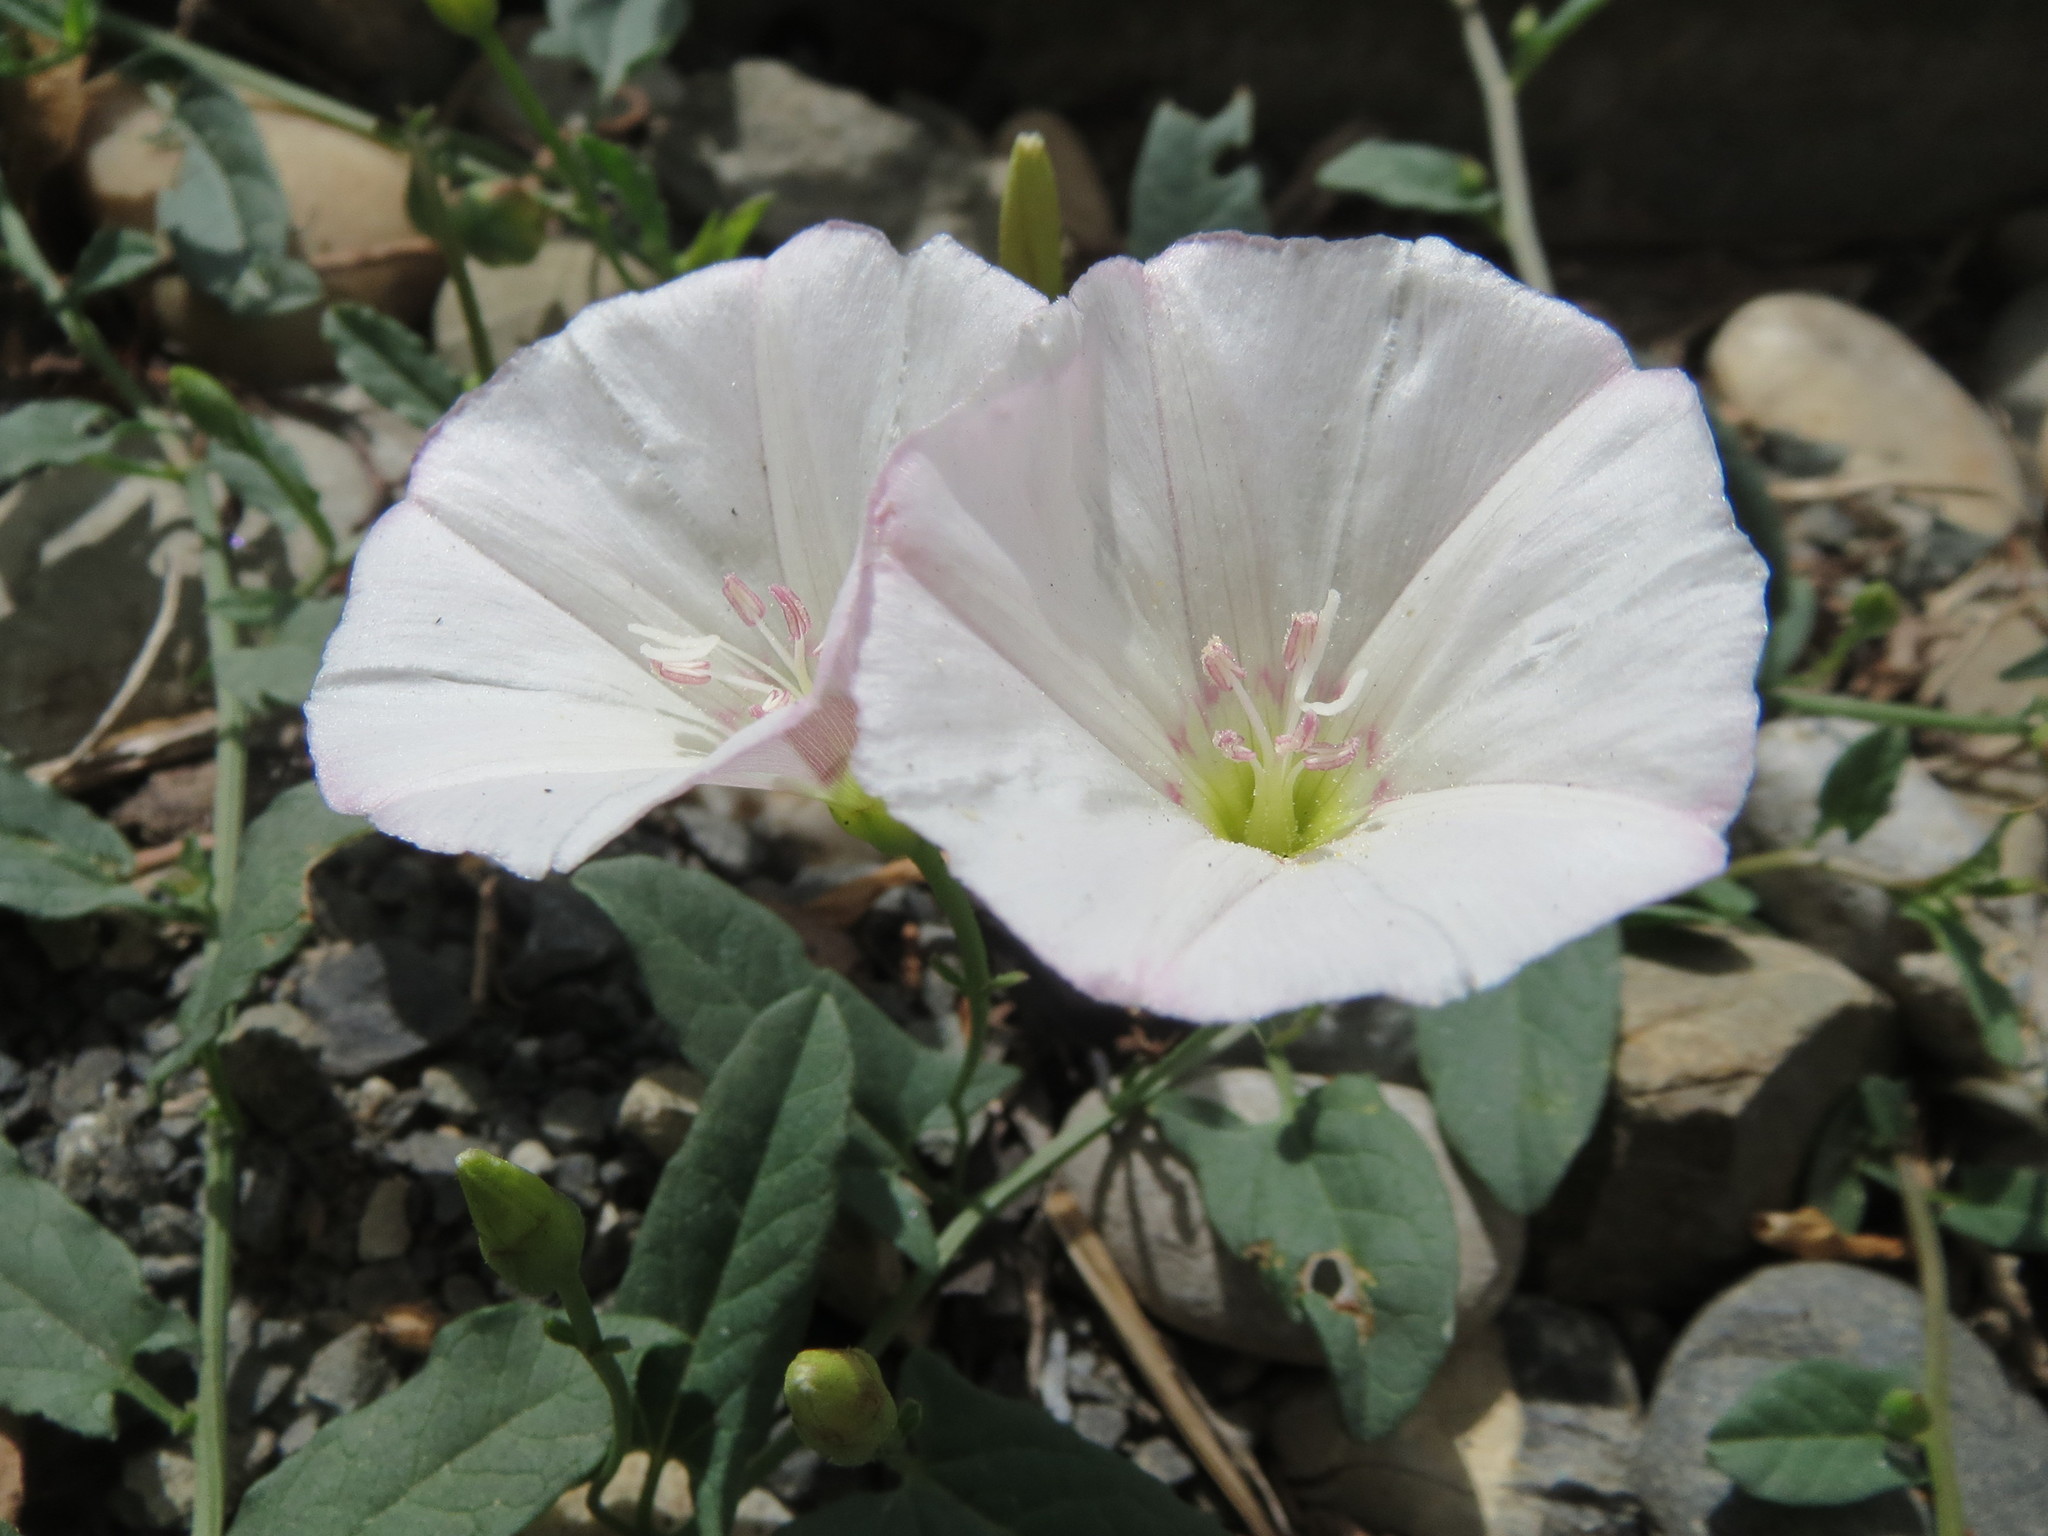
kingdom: Plantae
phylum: Tracheophyta
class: Magnoliopsida
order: Solanales
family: Convolvulaceae
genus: Convolvulus
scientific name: Convolvulus arvensis
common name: Field bindweed
